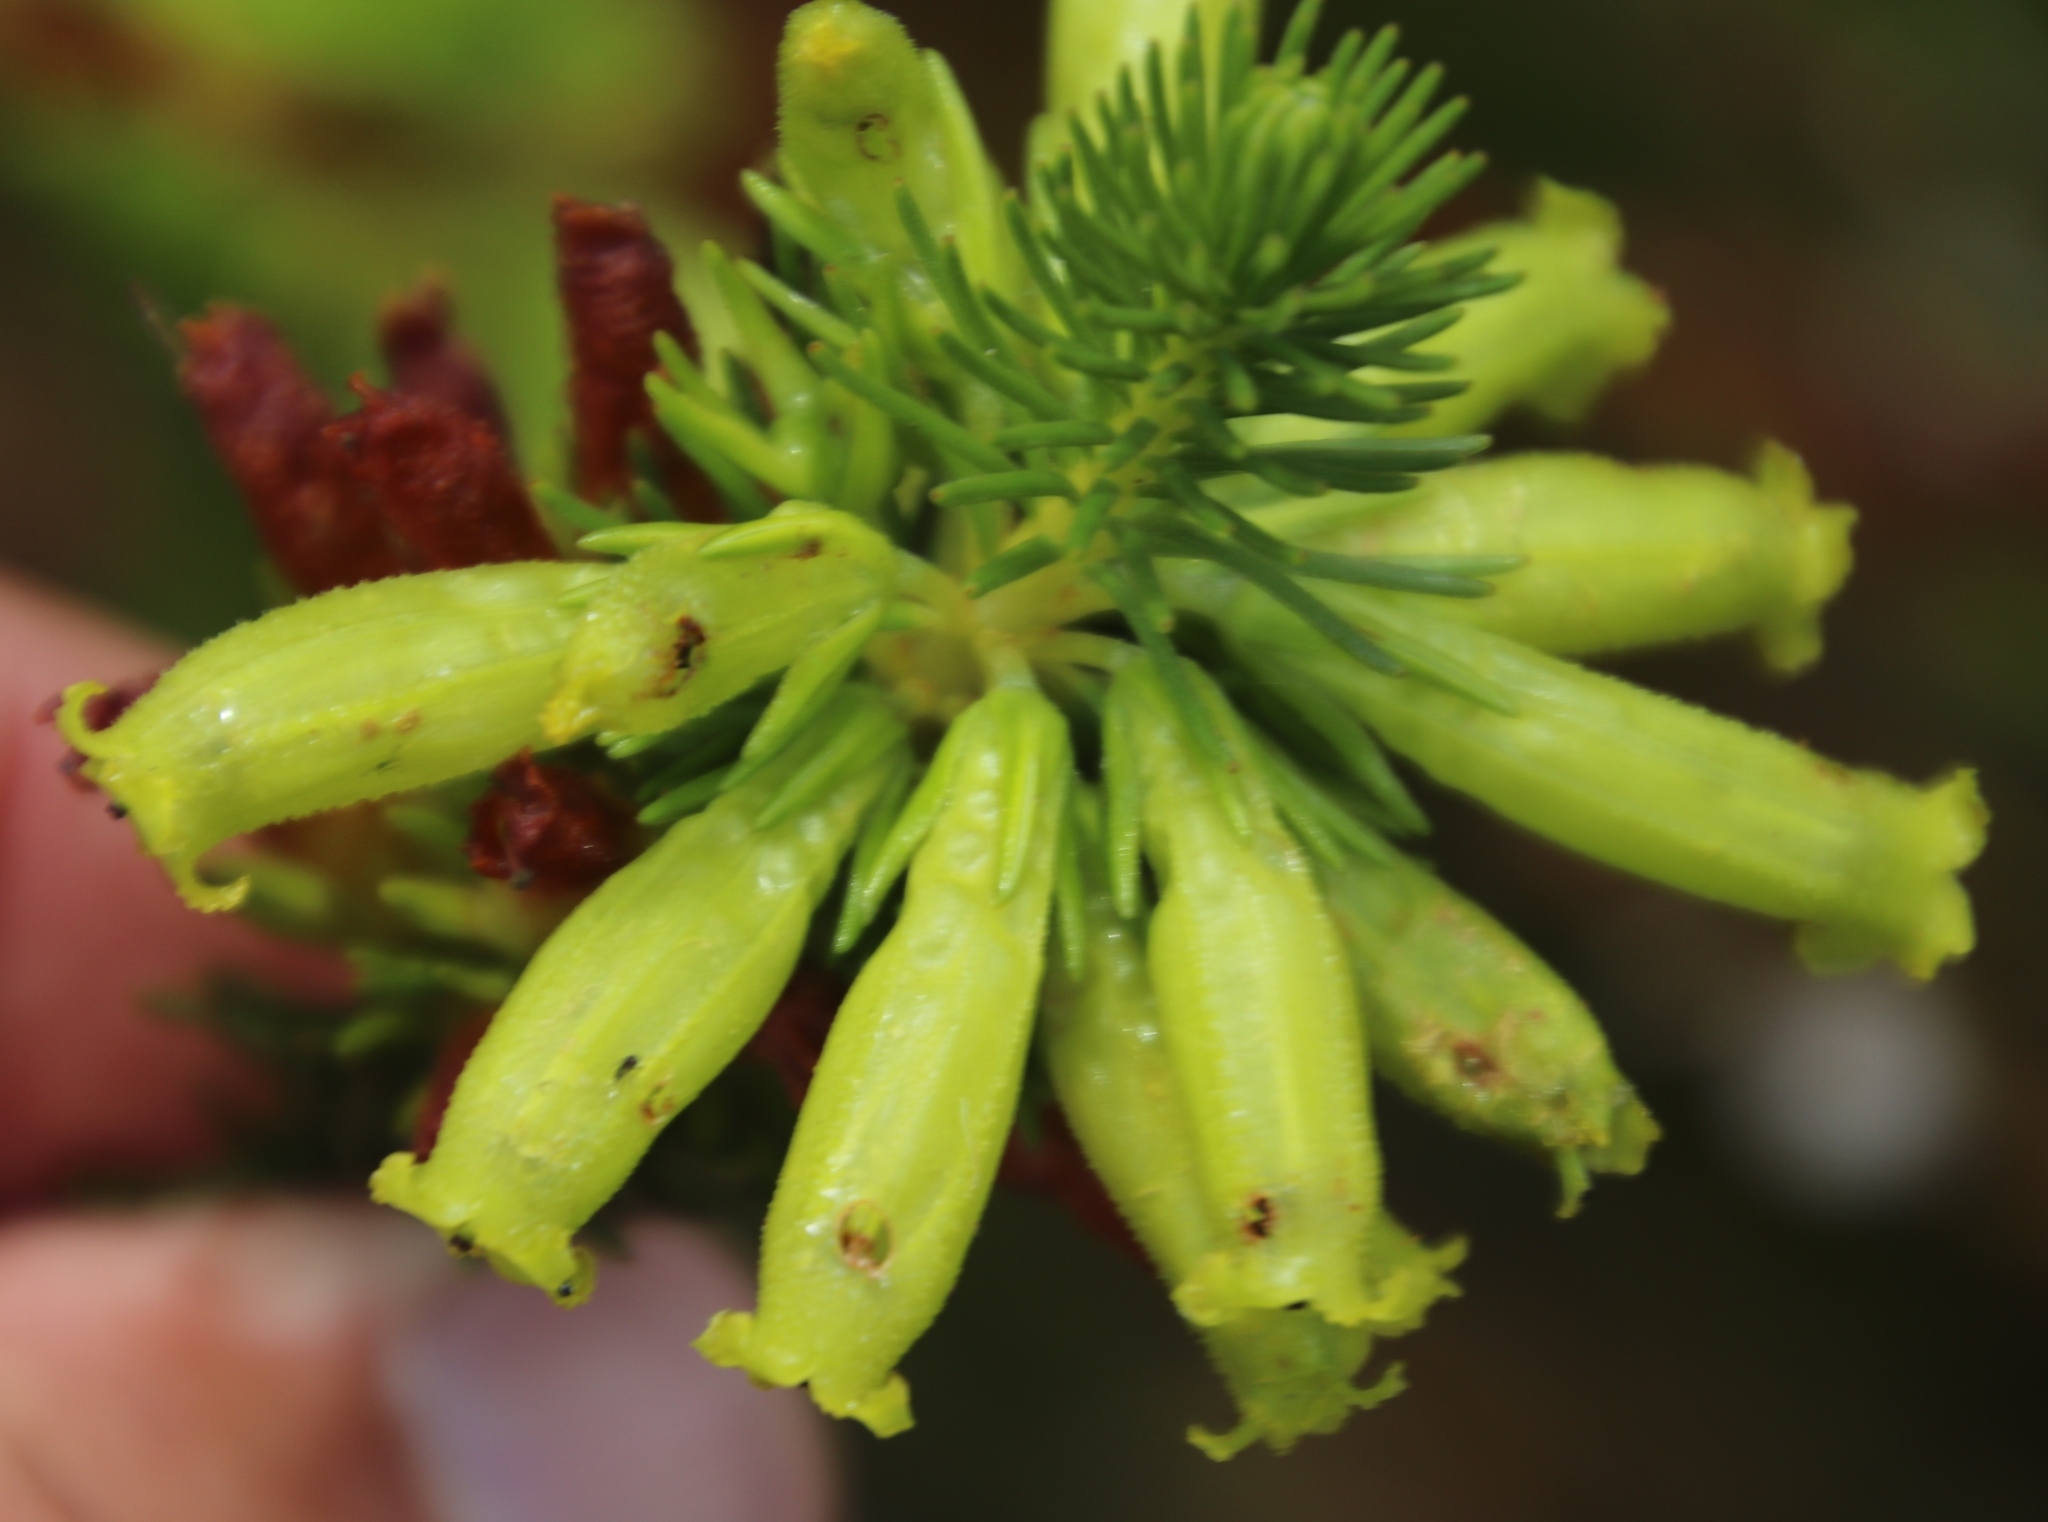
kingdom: Plantae
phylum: Tracheophyta
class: Magnoliopsida
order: Ericales
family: Ericaceae
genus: Erica
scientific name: Erica viscaria
